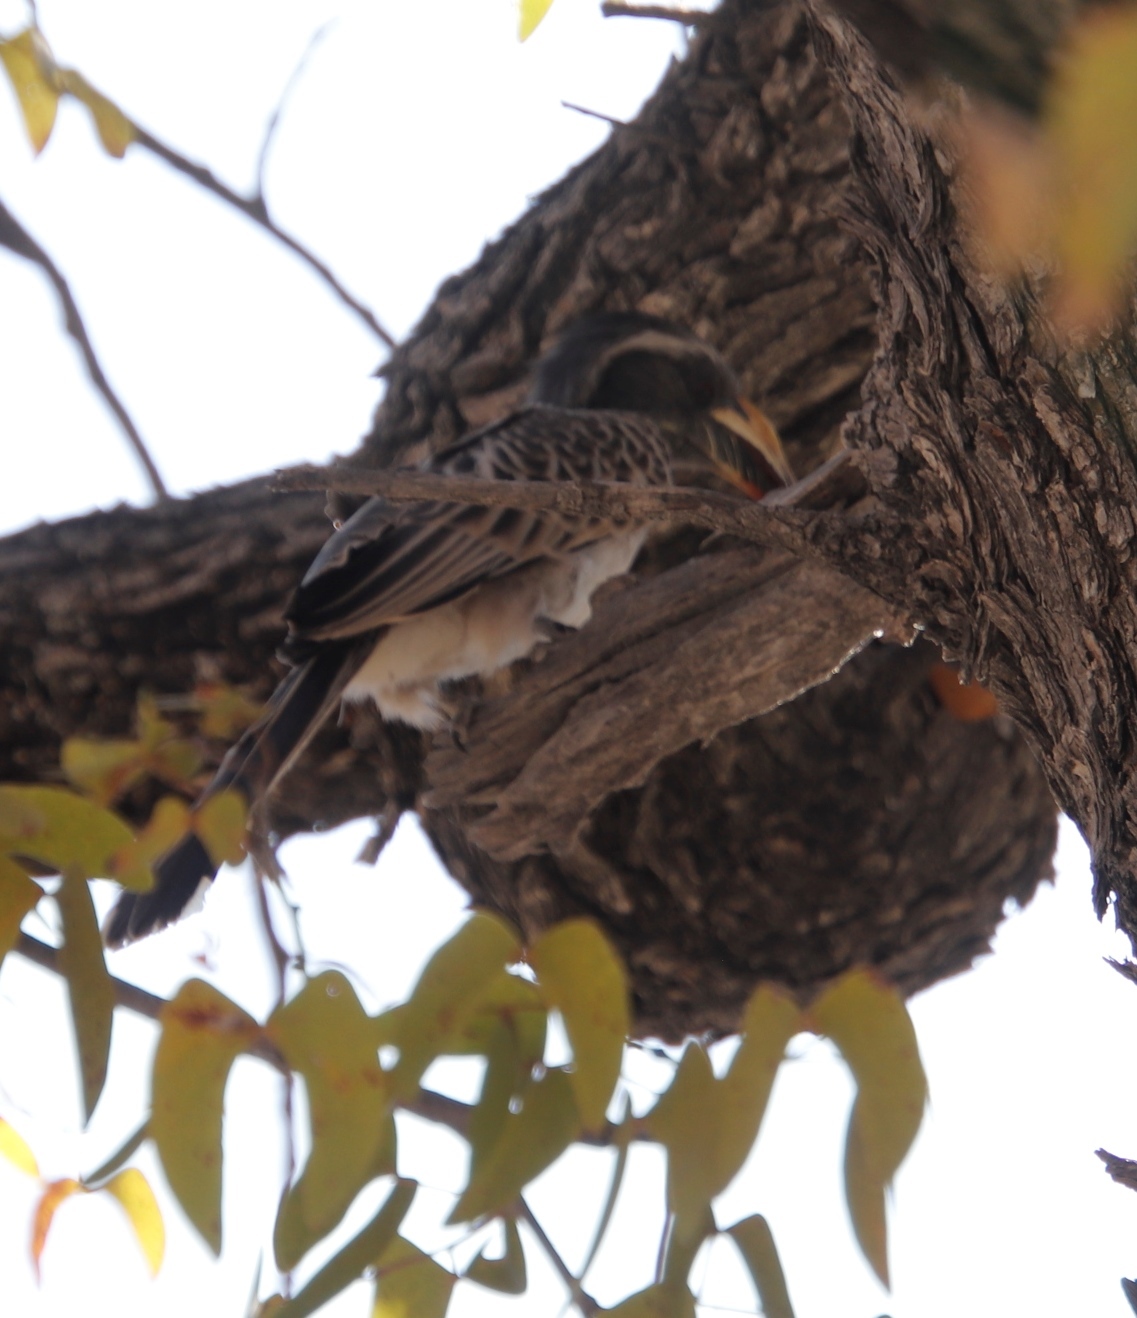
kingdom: Animalia
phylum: Chordata
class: Aves
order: Bucerotiformes
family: Bucerotidae
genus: Lophoceros
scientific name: Lophoceros nasutus
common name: African grey hornbill
